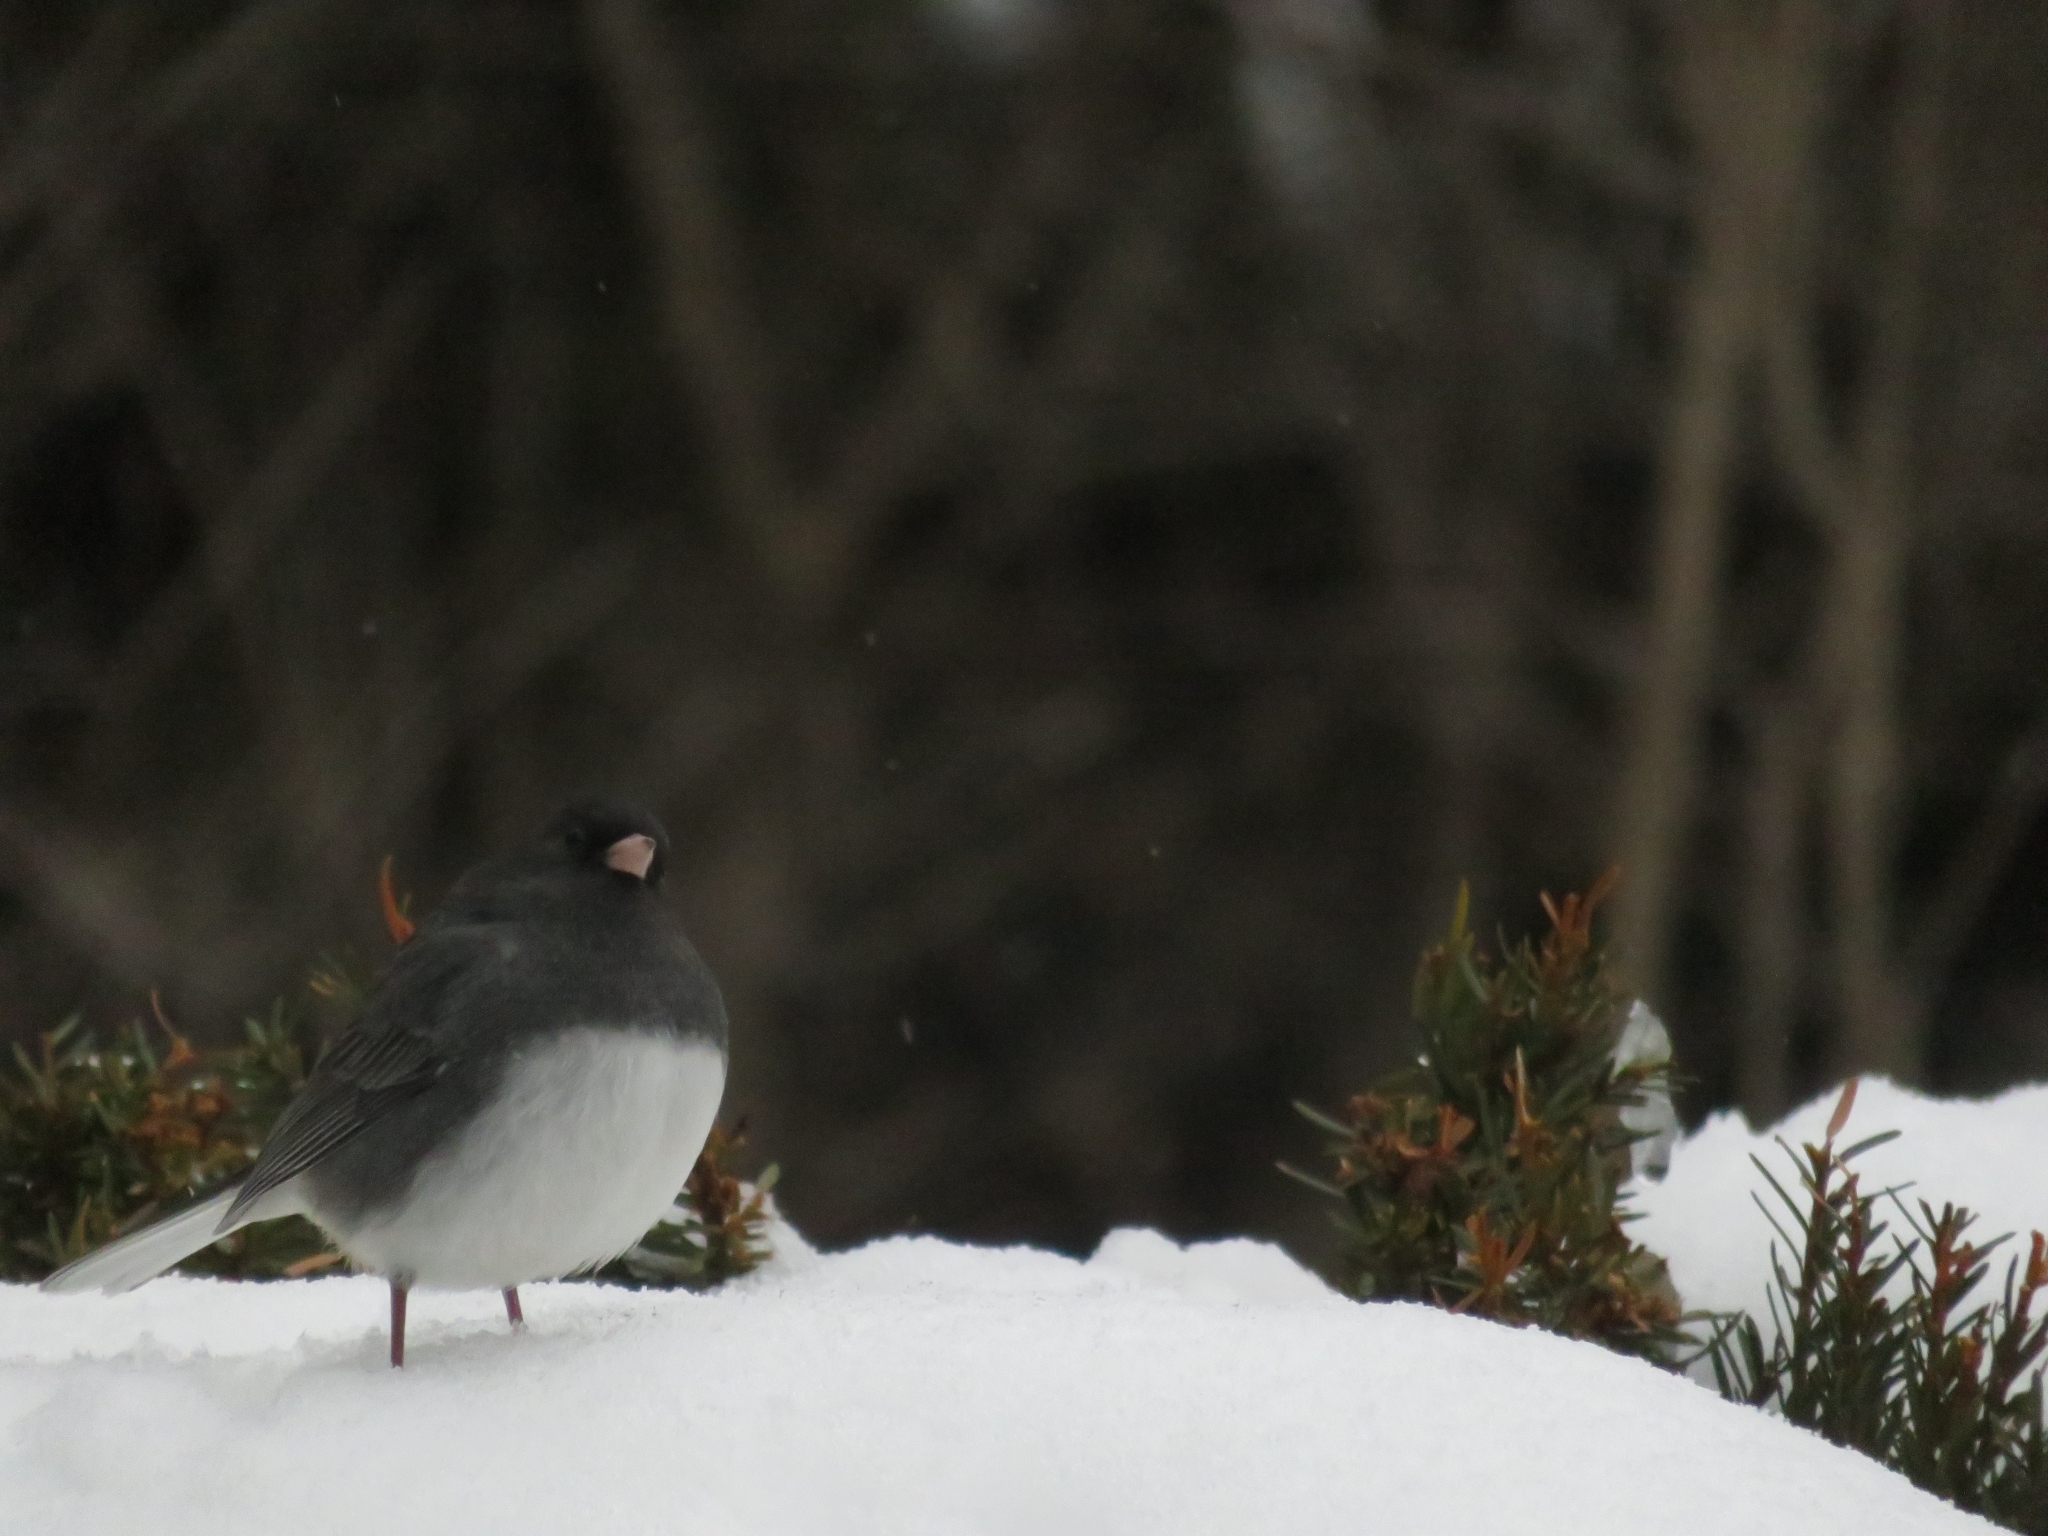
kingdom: Animalia
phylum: Chordata
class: Aves
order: Passeriformes
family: Passerellidae
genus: Junco
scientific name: Junco hyemalis
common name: Dark-eyed junco
